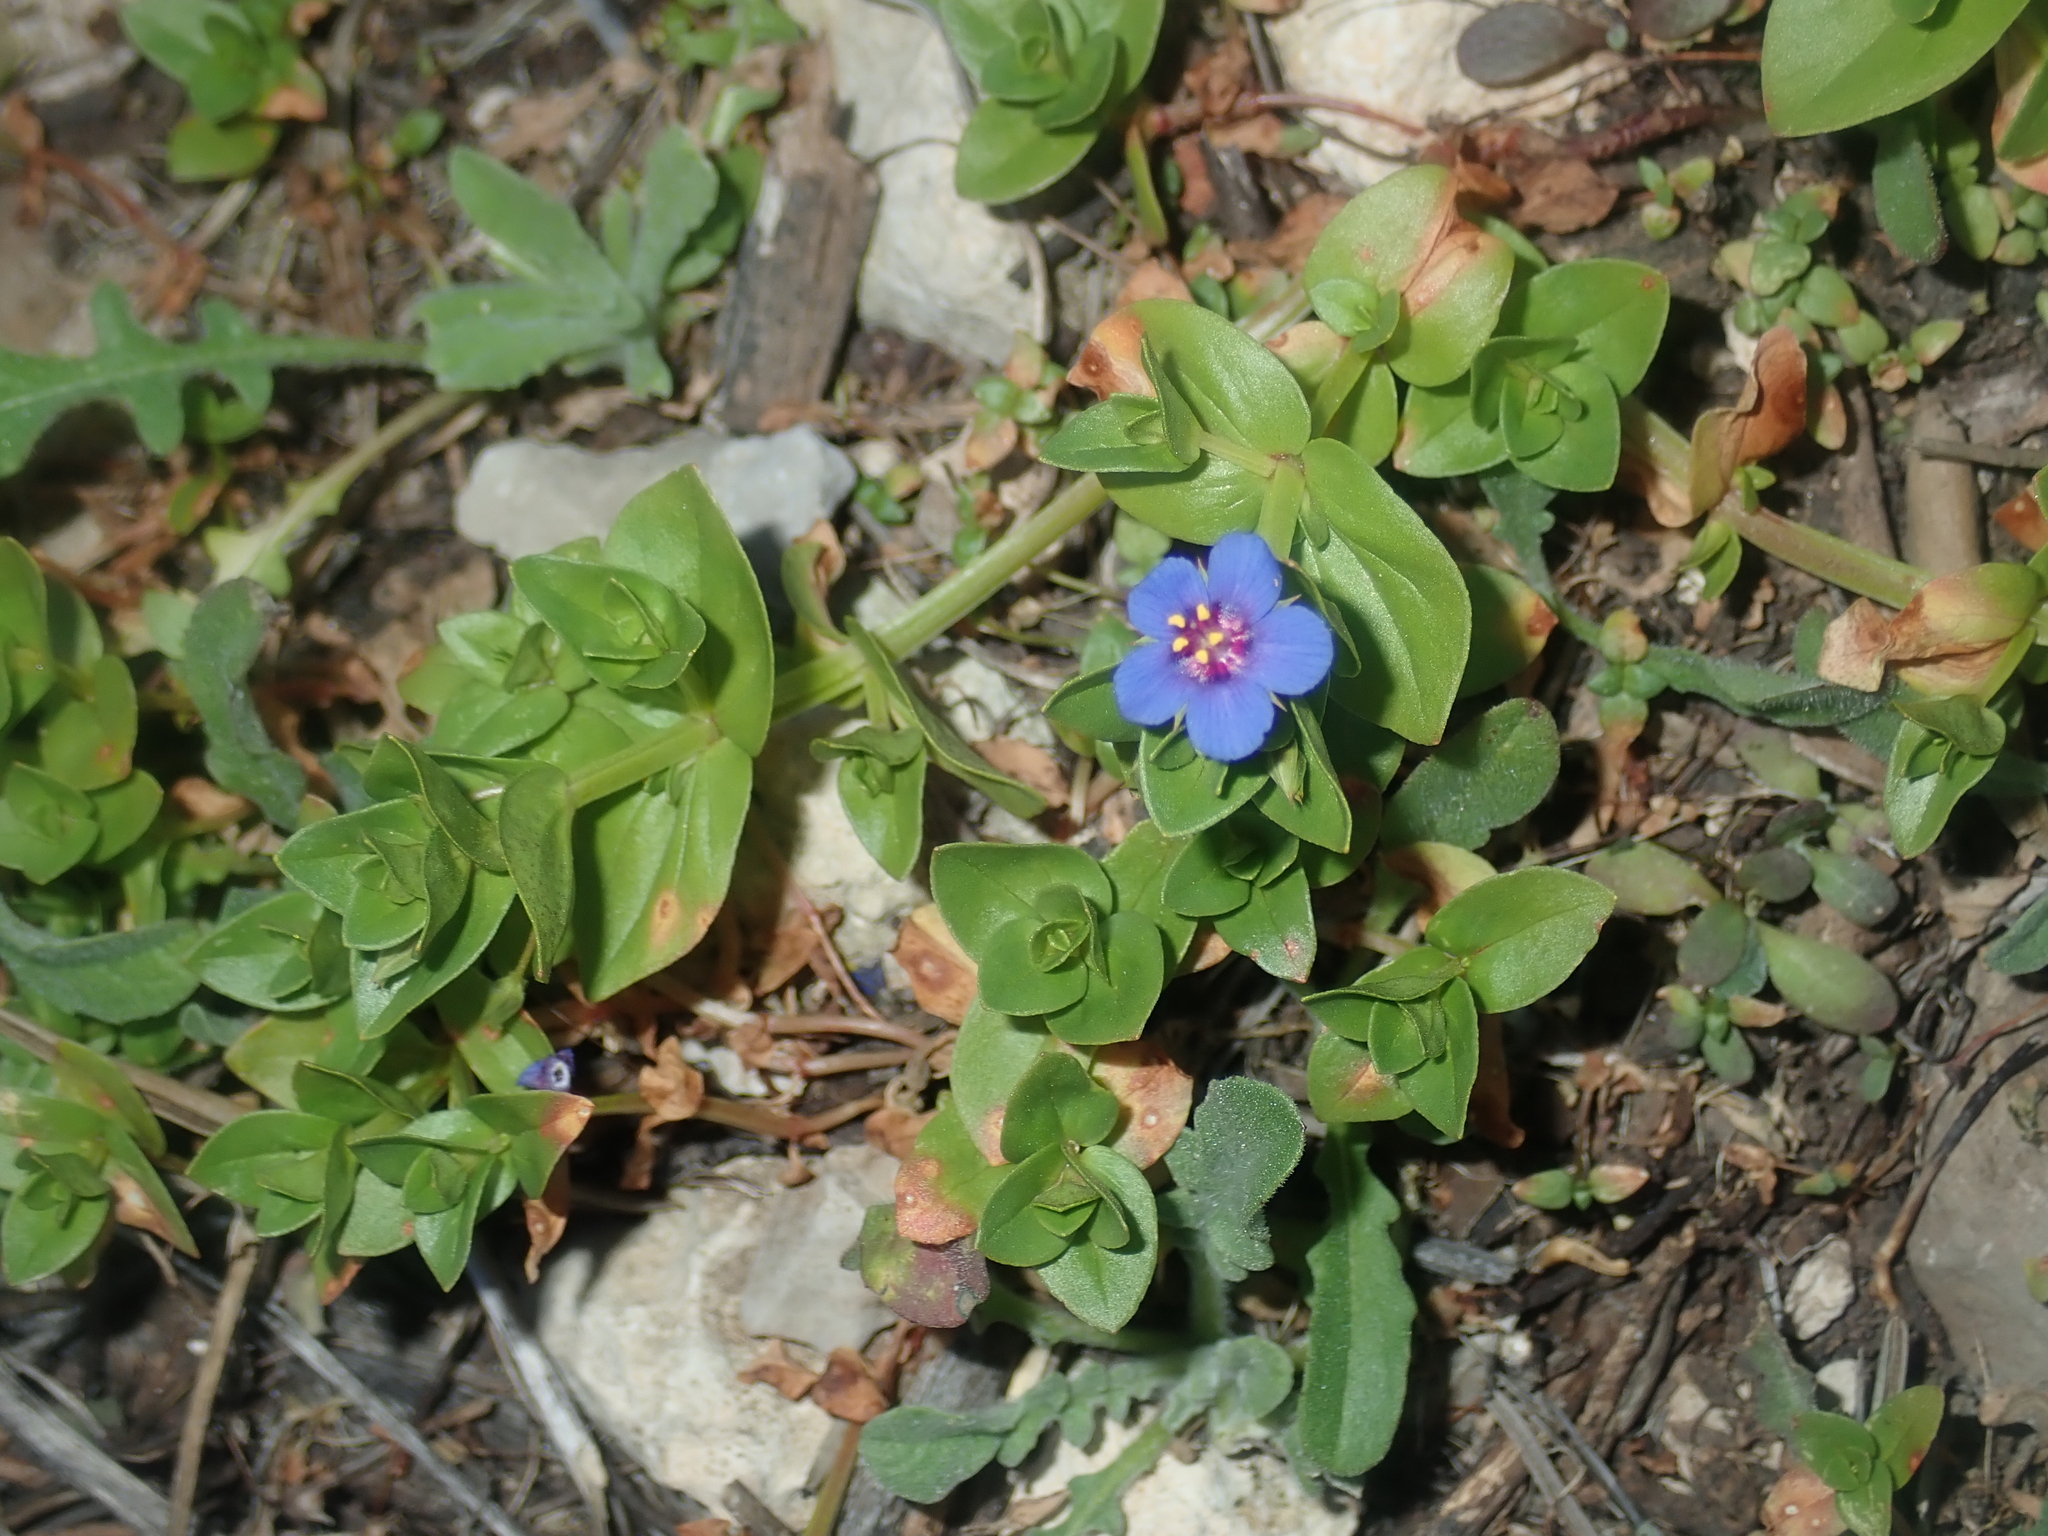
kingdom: Plantae
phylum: Tracheophyta
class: Magnoliopsida
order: Ericales
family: Primulaceae
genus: Lysimachia
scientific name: Lysimachia loeflingii
